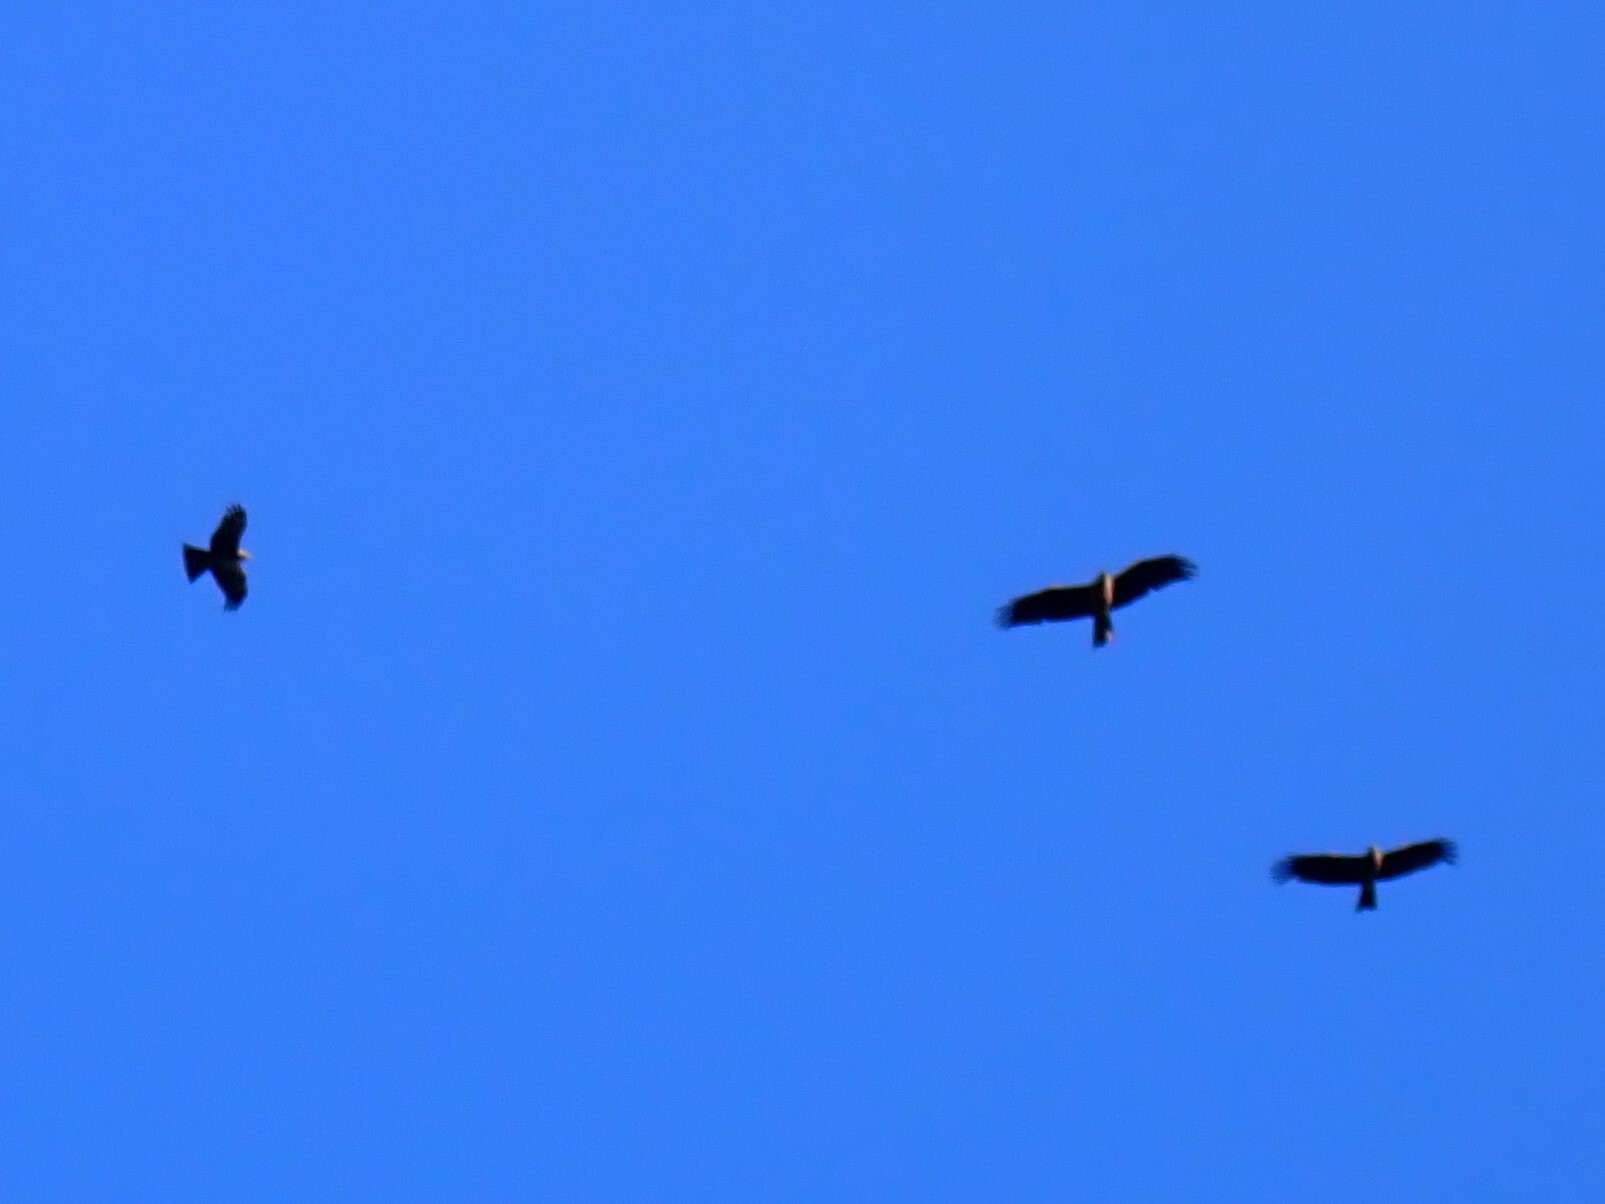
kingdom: Animalia
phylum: Chordata
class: Aves
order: Accipitriformes
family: Accipitridae
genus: Milvus
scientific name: Milvus migrans
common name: Black kite
